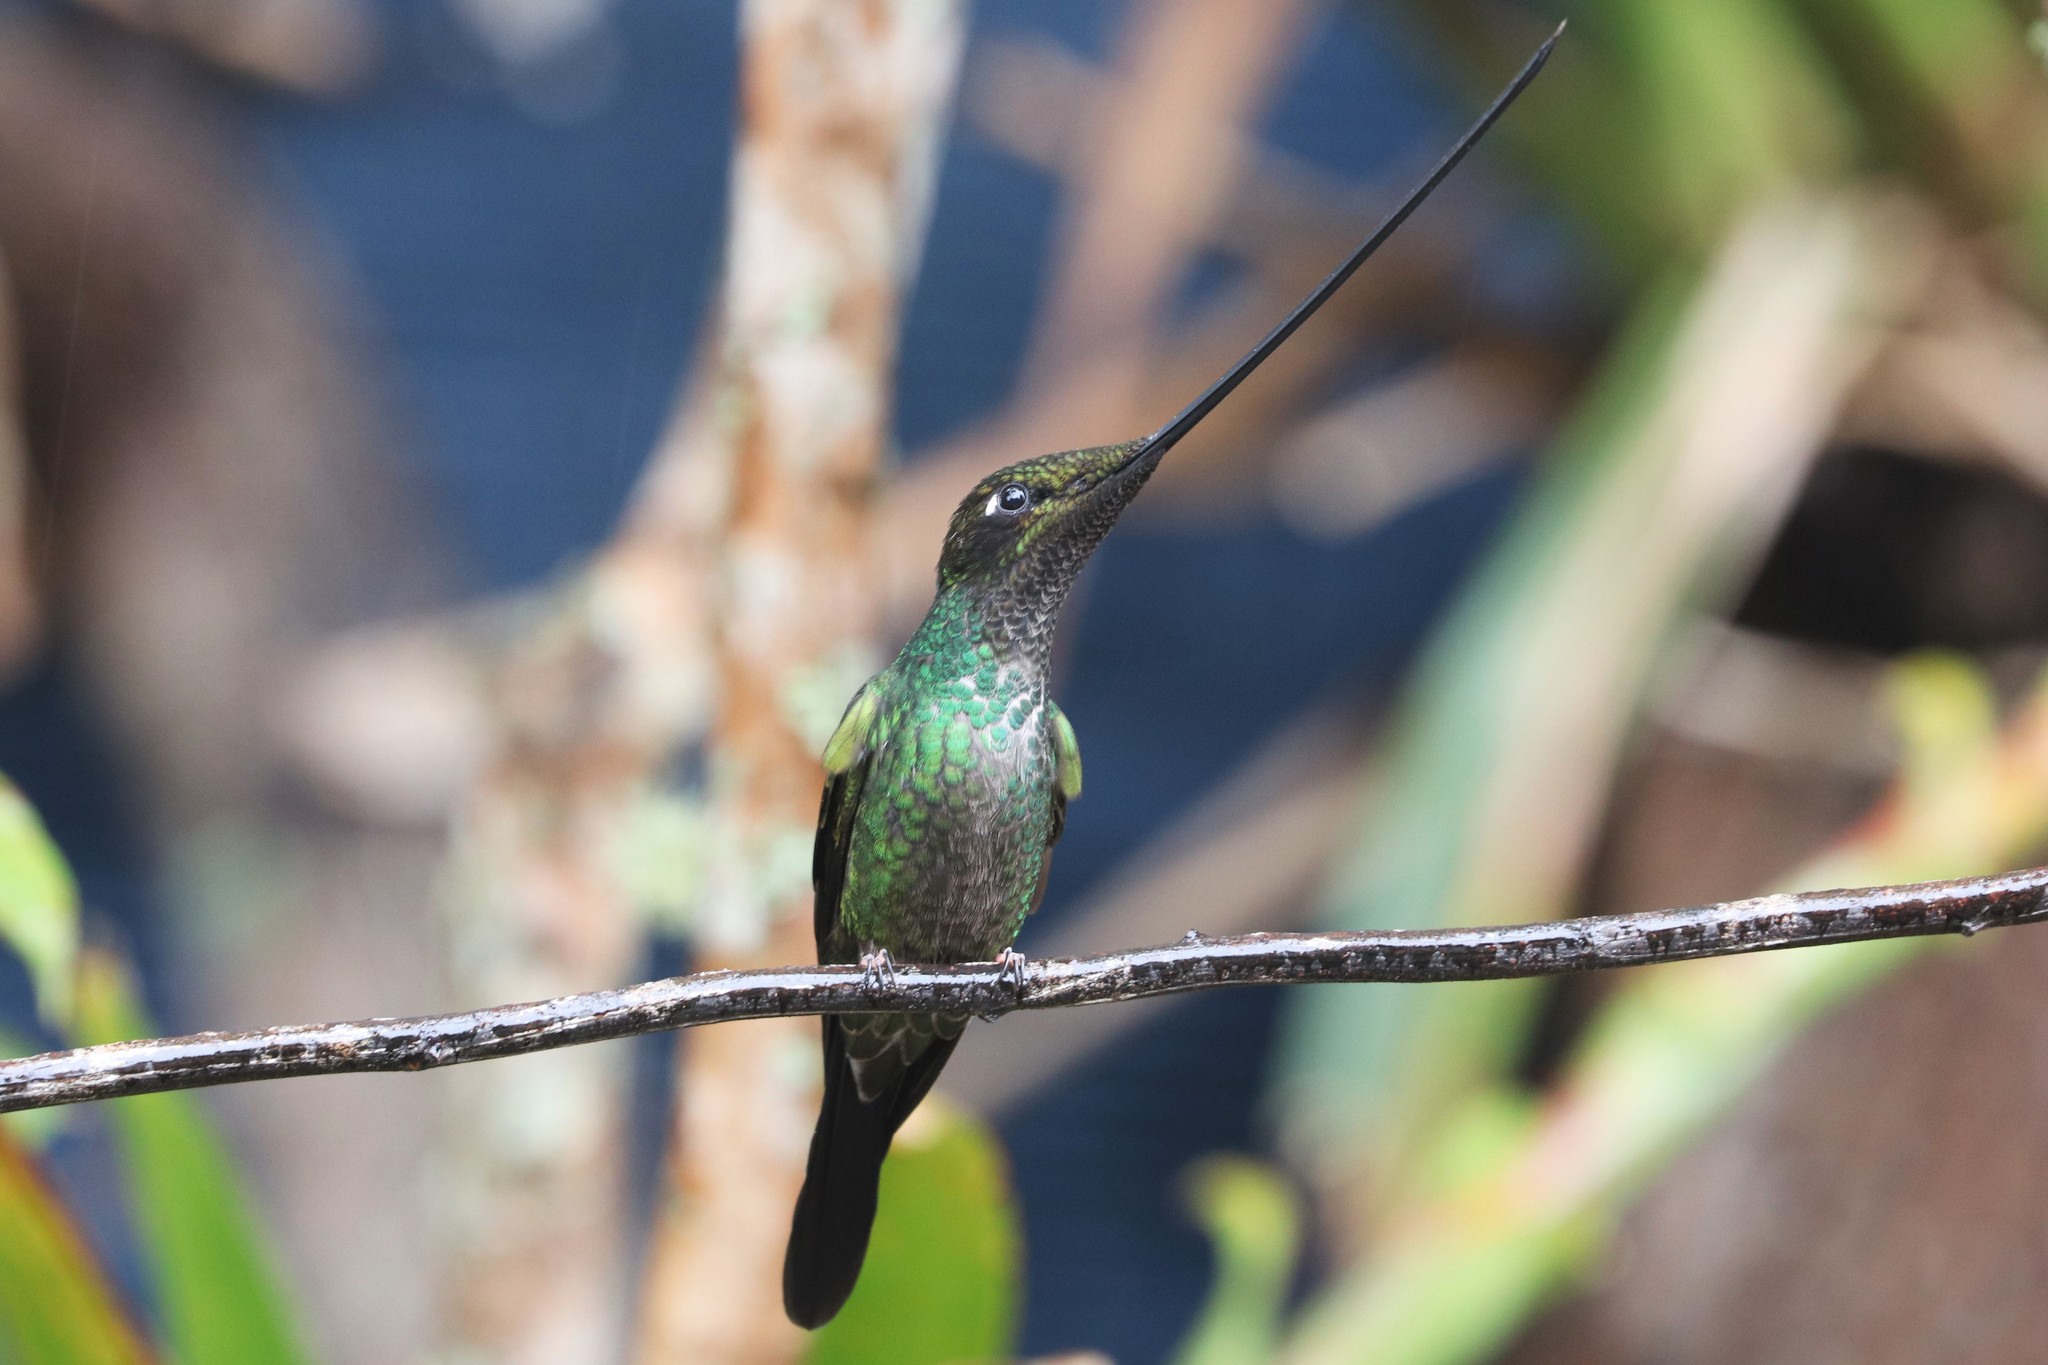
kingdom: Animalia
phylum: Chordata
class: Aves
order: Apodiformes
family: Trochilidae
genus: Ensifera
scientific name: Ensifera ensifera
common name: Sword-billed hummingbird
